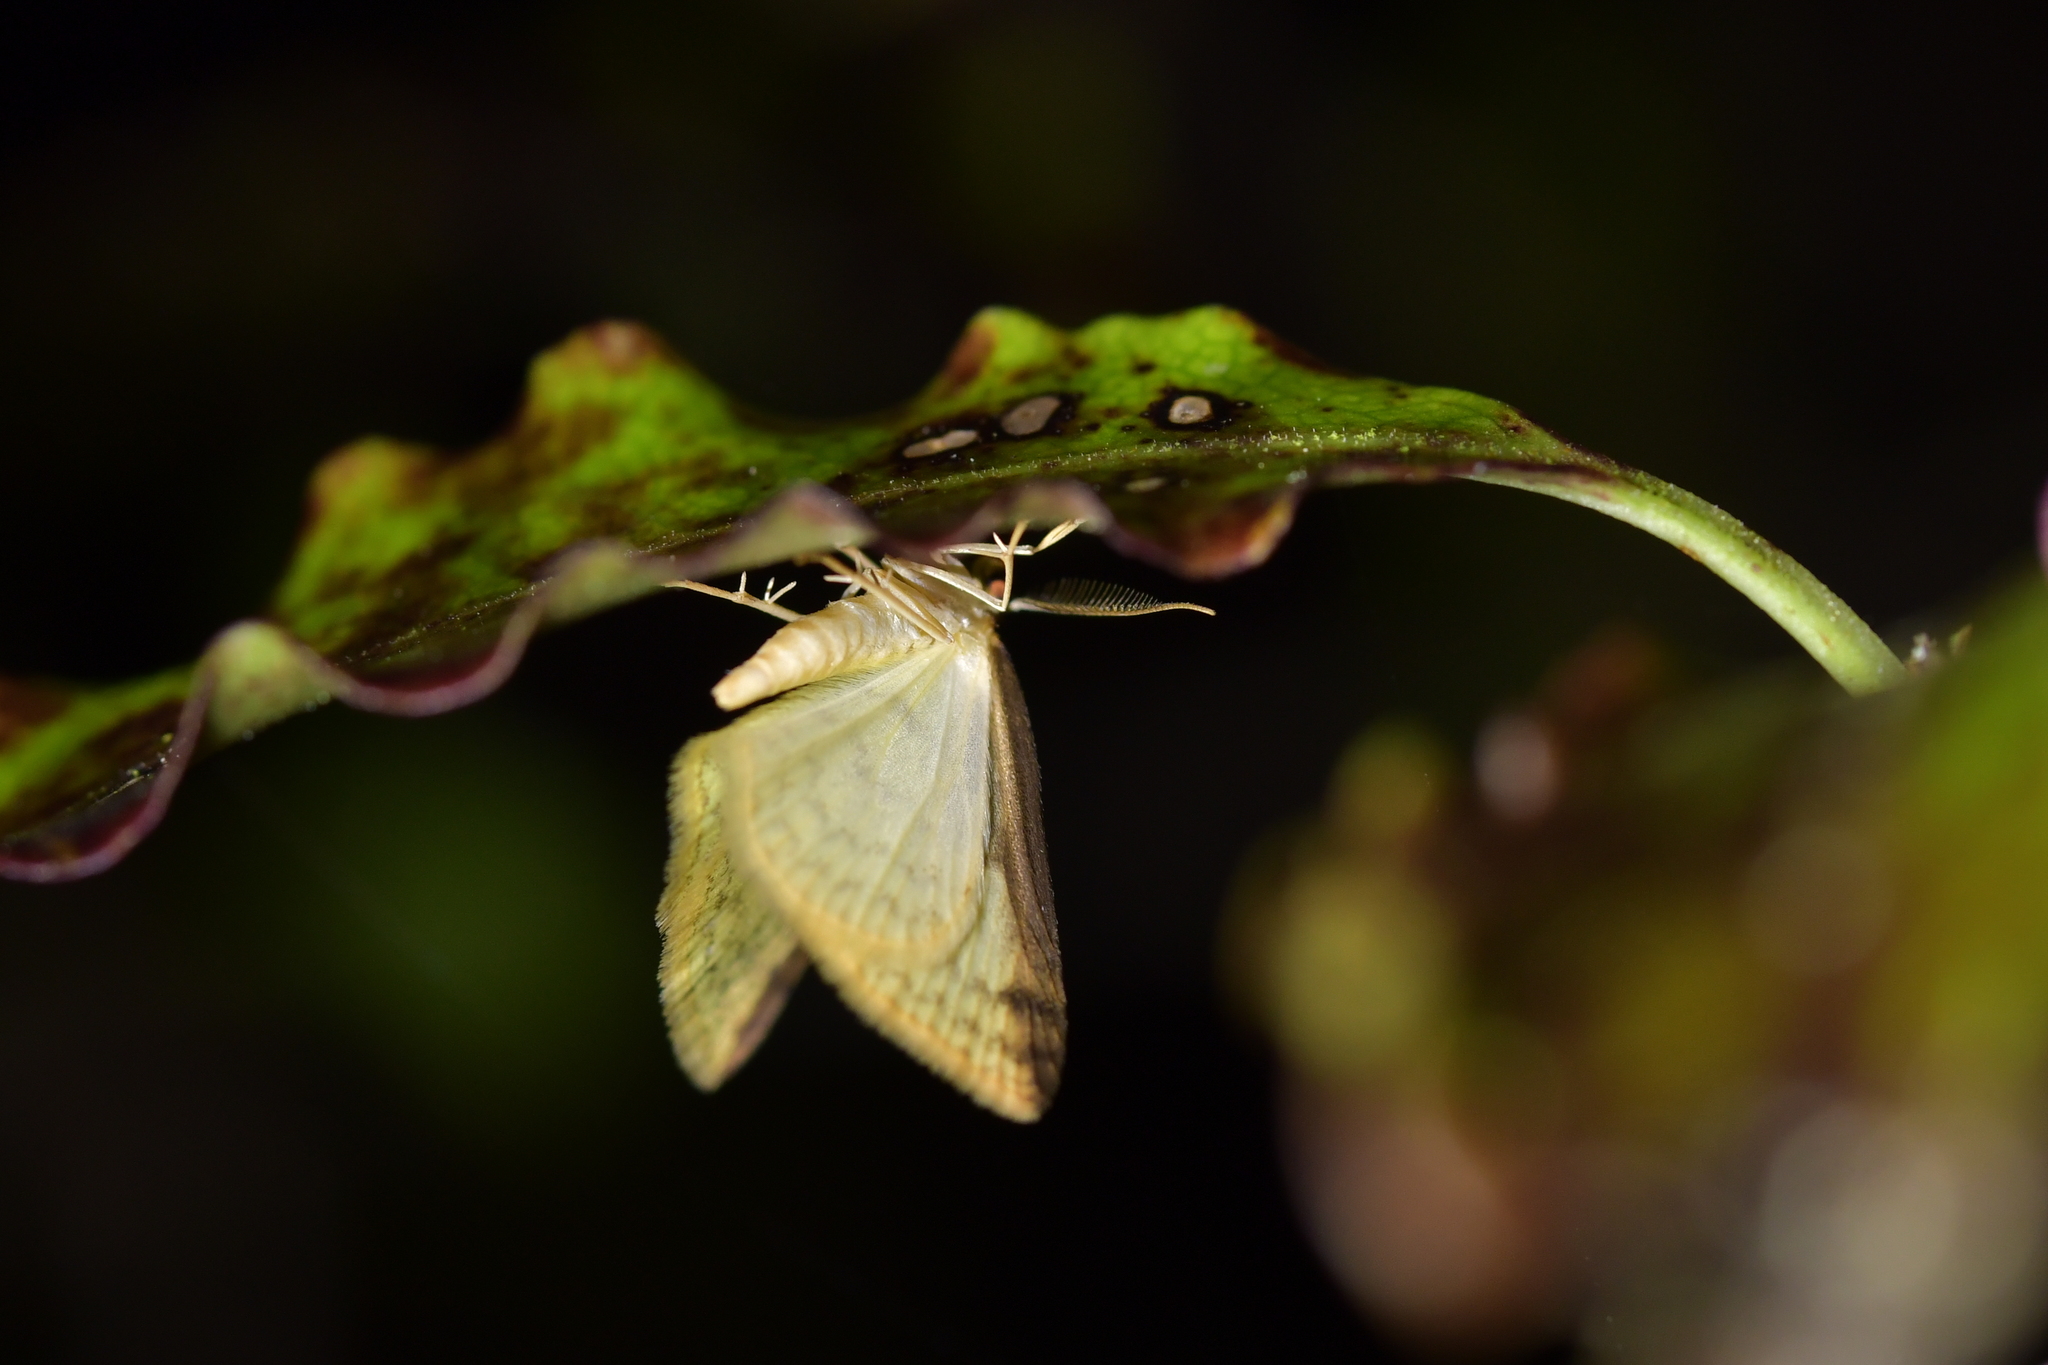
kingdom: Animalia
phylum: Arthropoda
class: Insecta
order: Lepidoptera
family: Geometridae
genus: Epiphryne
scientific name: Epiphryne undosata
